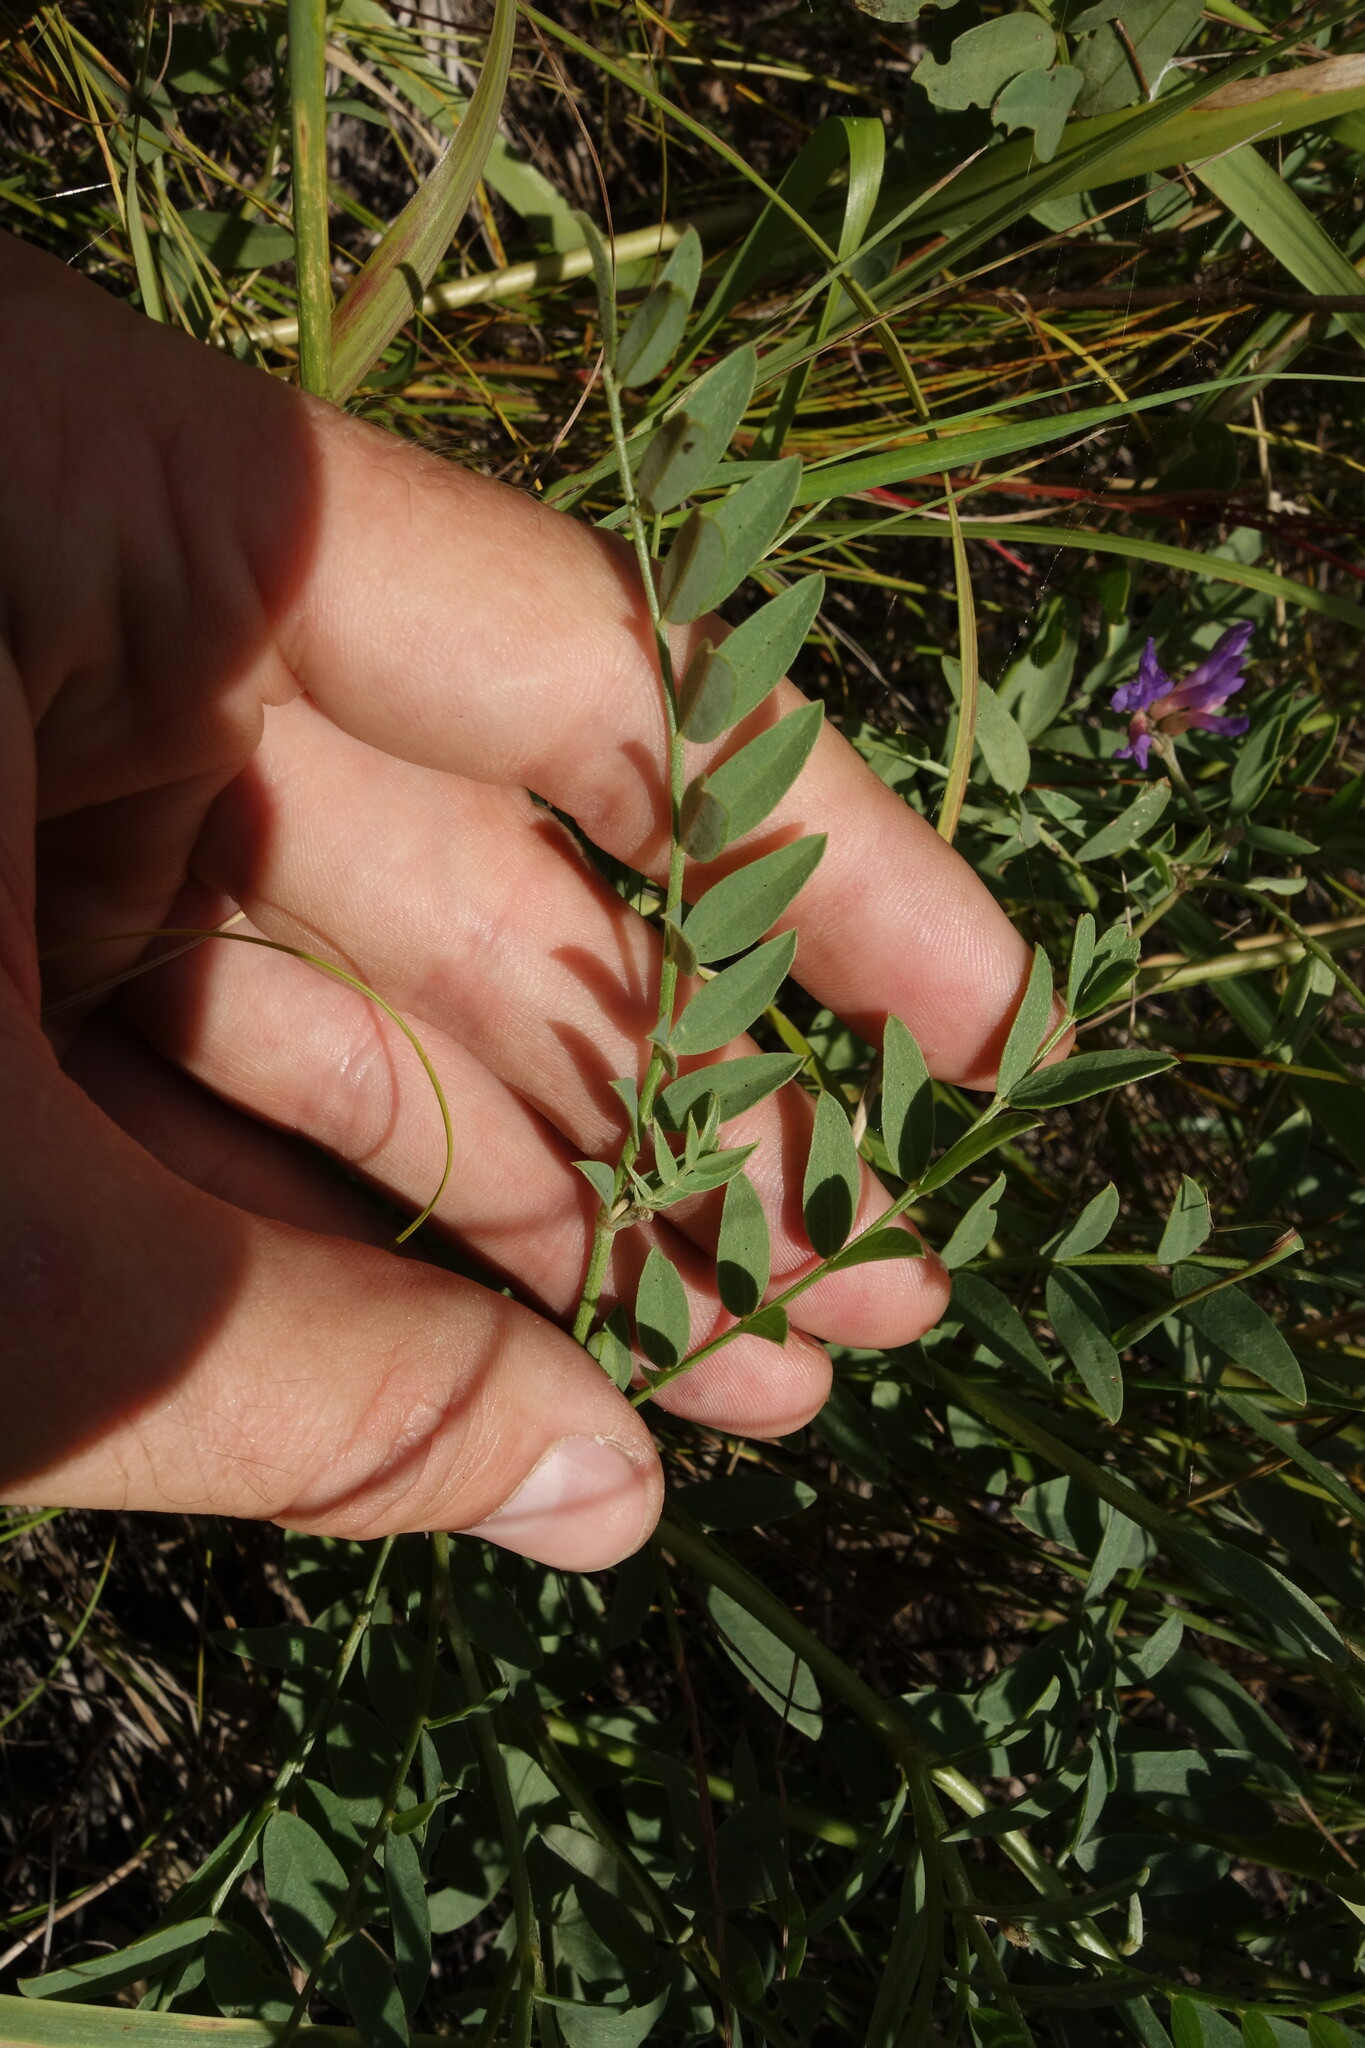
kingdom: Plantae
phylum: Tracheophyta
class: Magnoliopsida
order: Fabales
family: Fabaceae
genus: Astragalus
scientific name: Astragalus laxmannii
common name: Laxmann's milk-vetch
